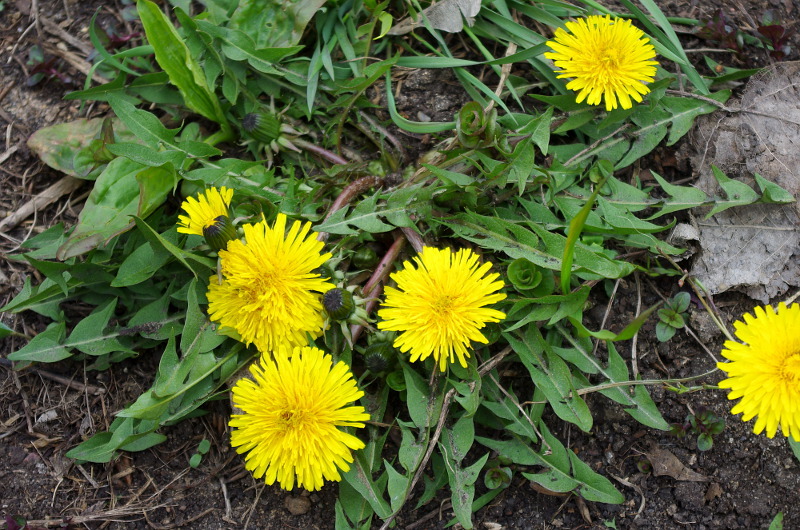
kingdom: Plantae
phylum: Tracheophyta
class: Magnoliopsida
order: Asterales
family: Asteraceae
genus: Taraxacum
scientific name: Taraxacum officinale
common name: Common dandelion
